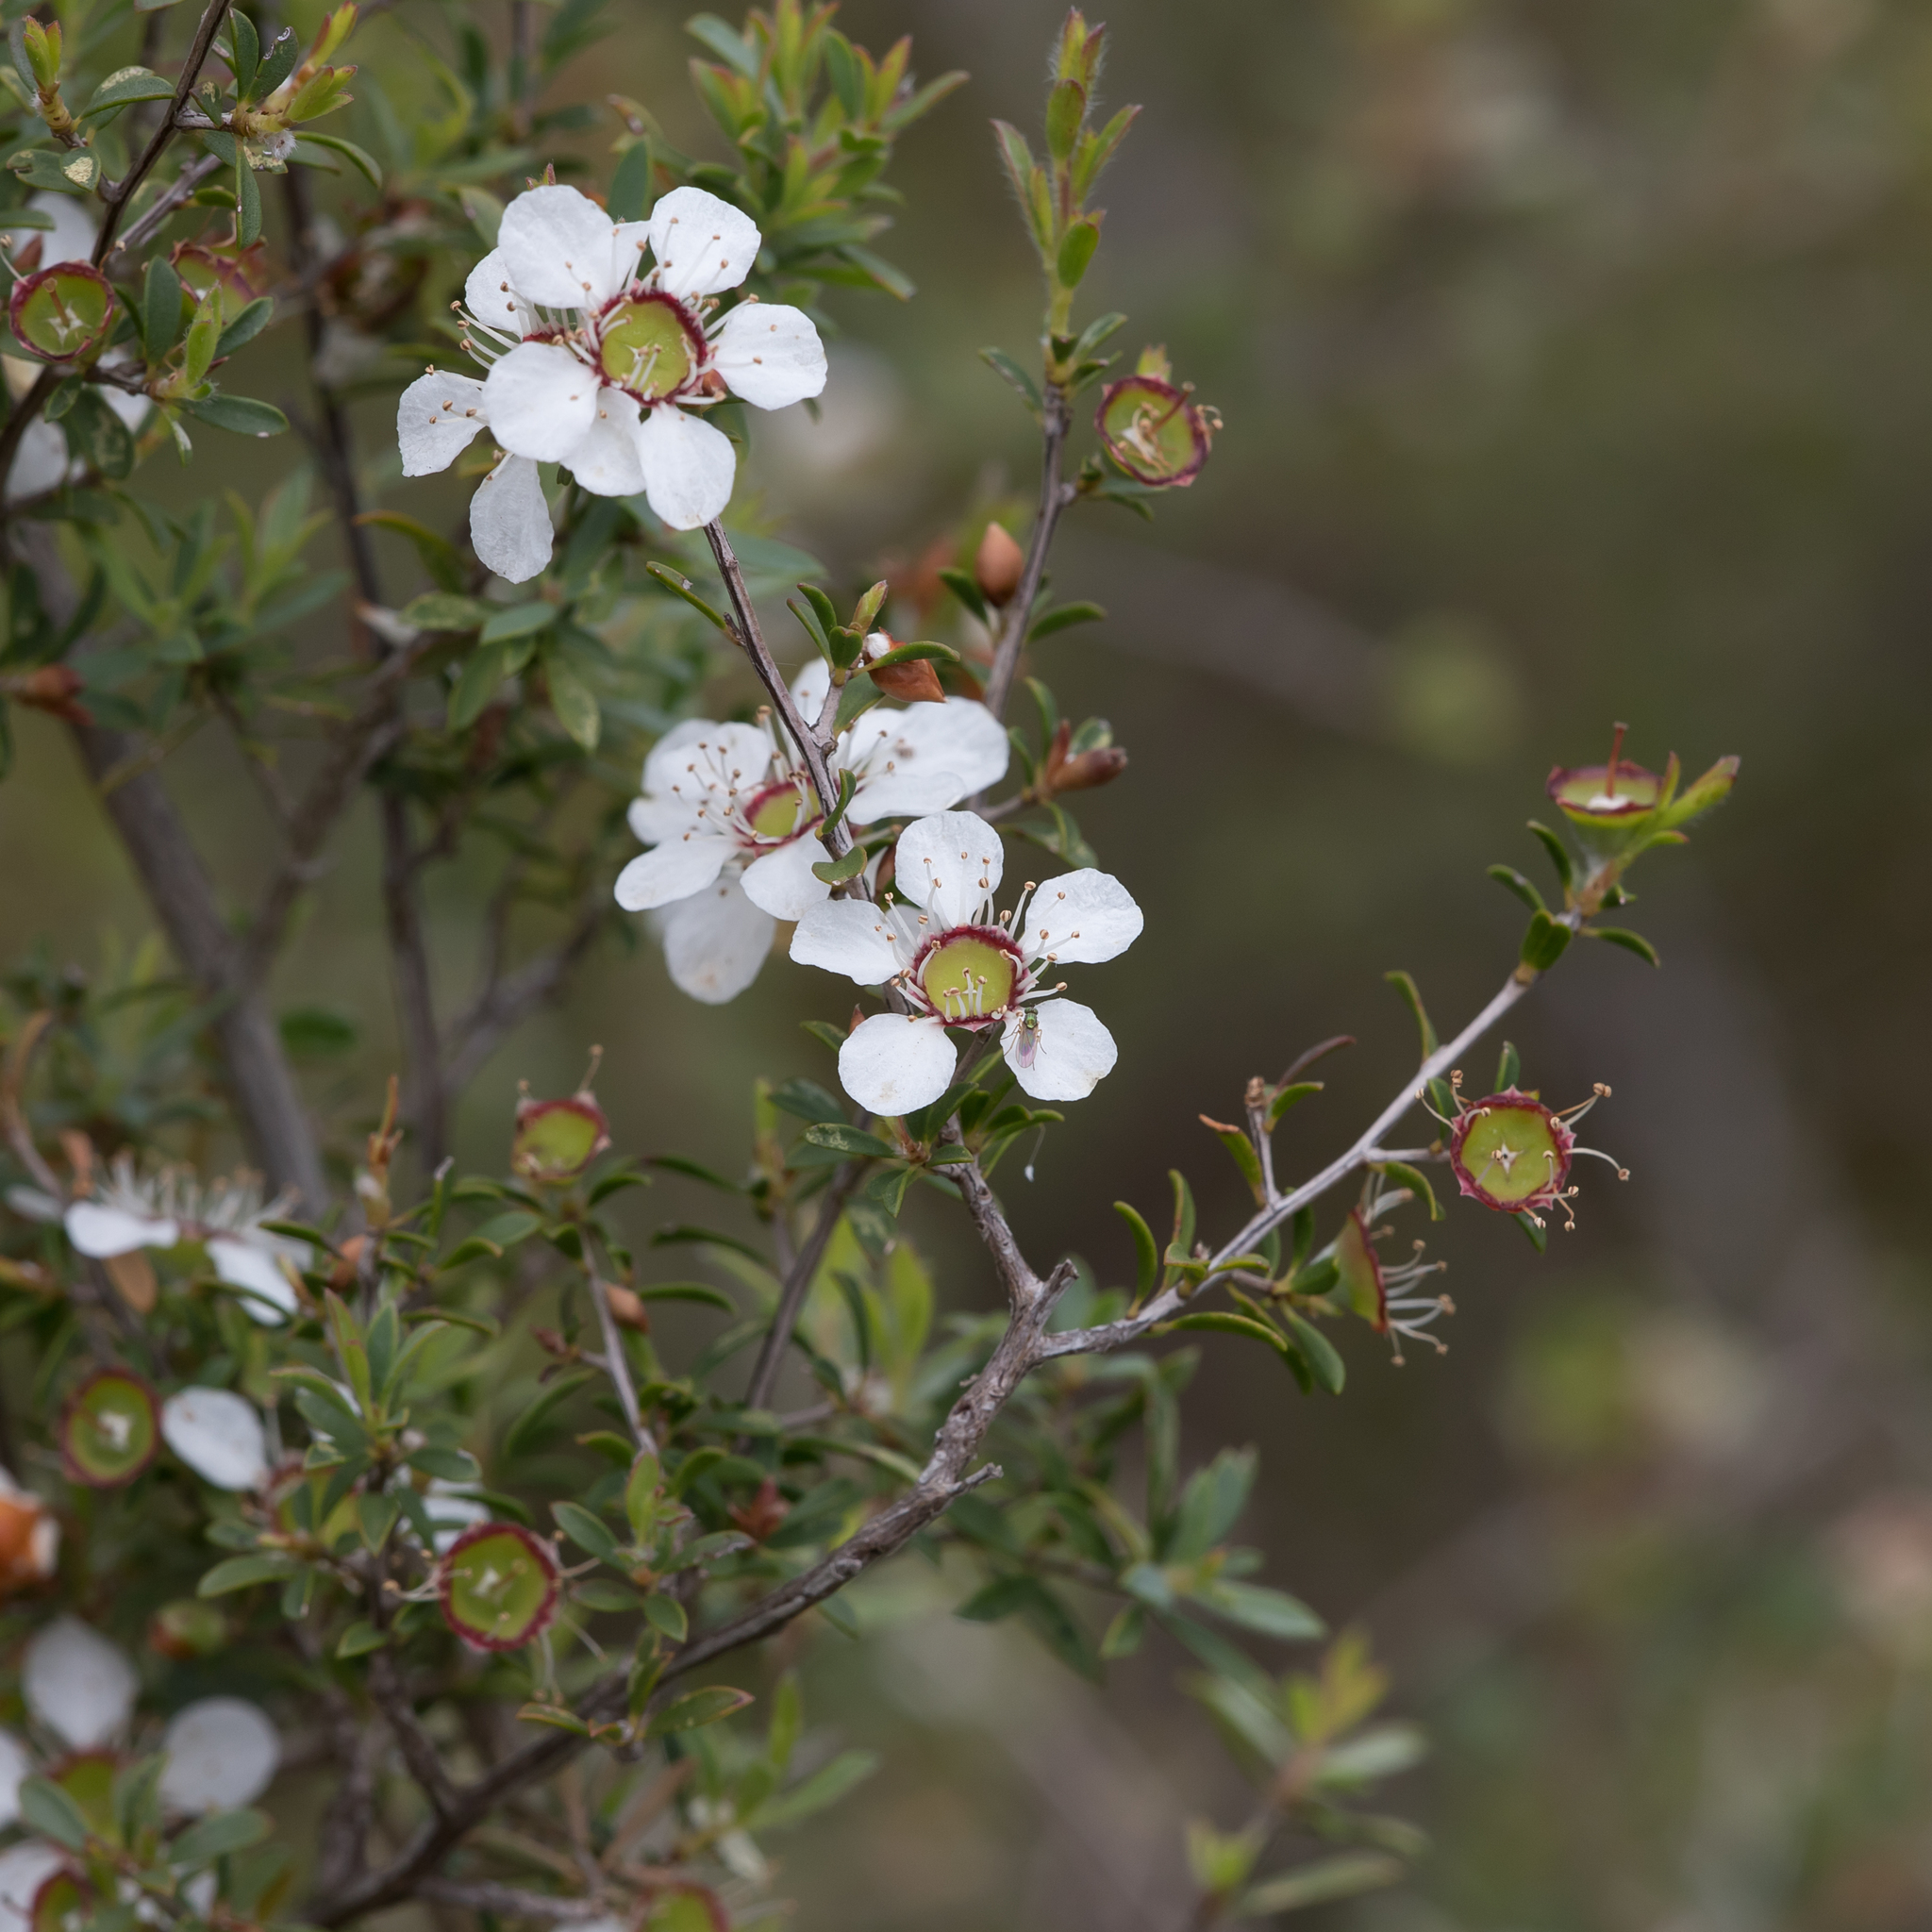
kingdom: Plantae
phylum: Tracheophyta
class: Magnoliopsida
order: Myrtales
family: Myrtaceae
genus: Leptospermum
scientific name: Leptospermum myrsinoides
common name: Heath teatree
